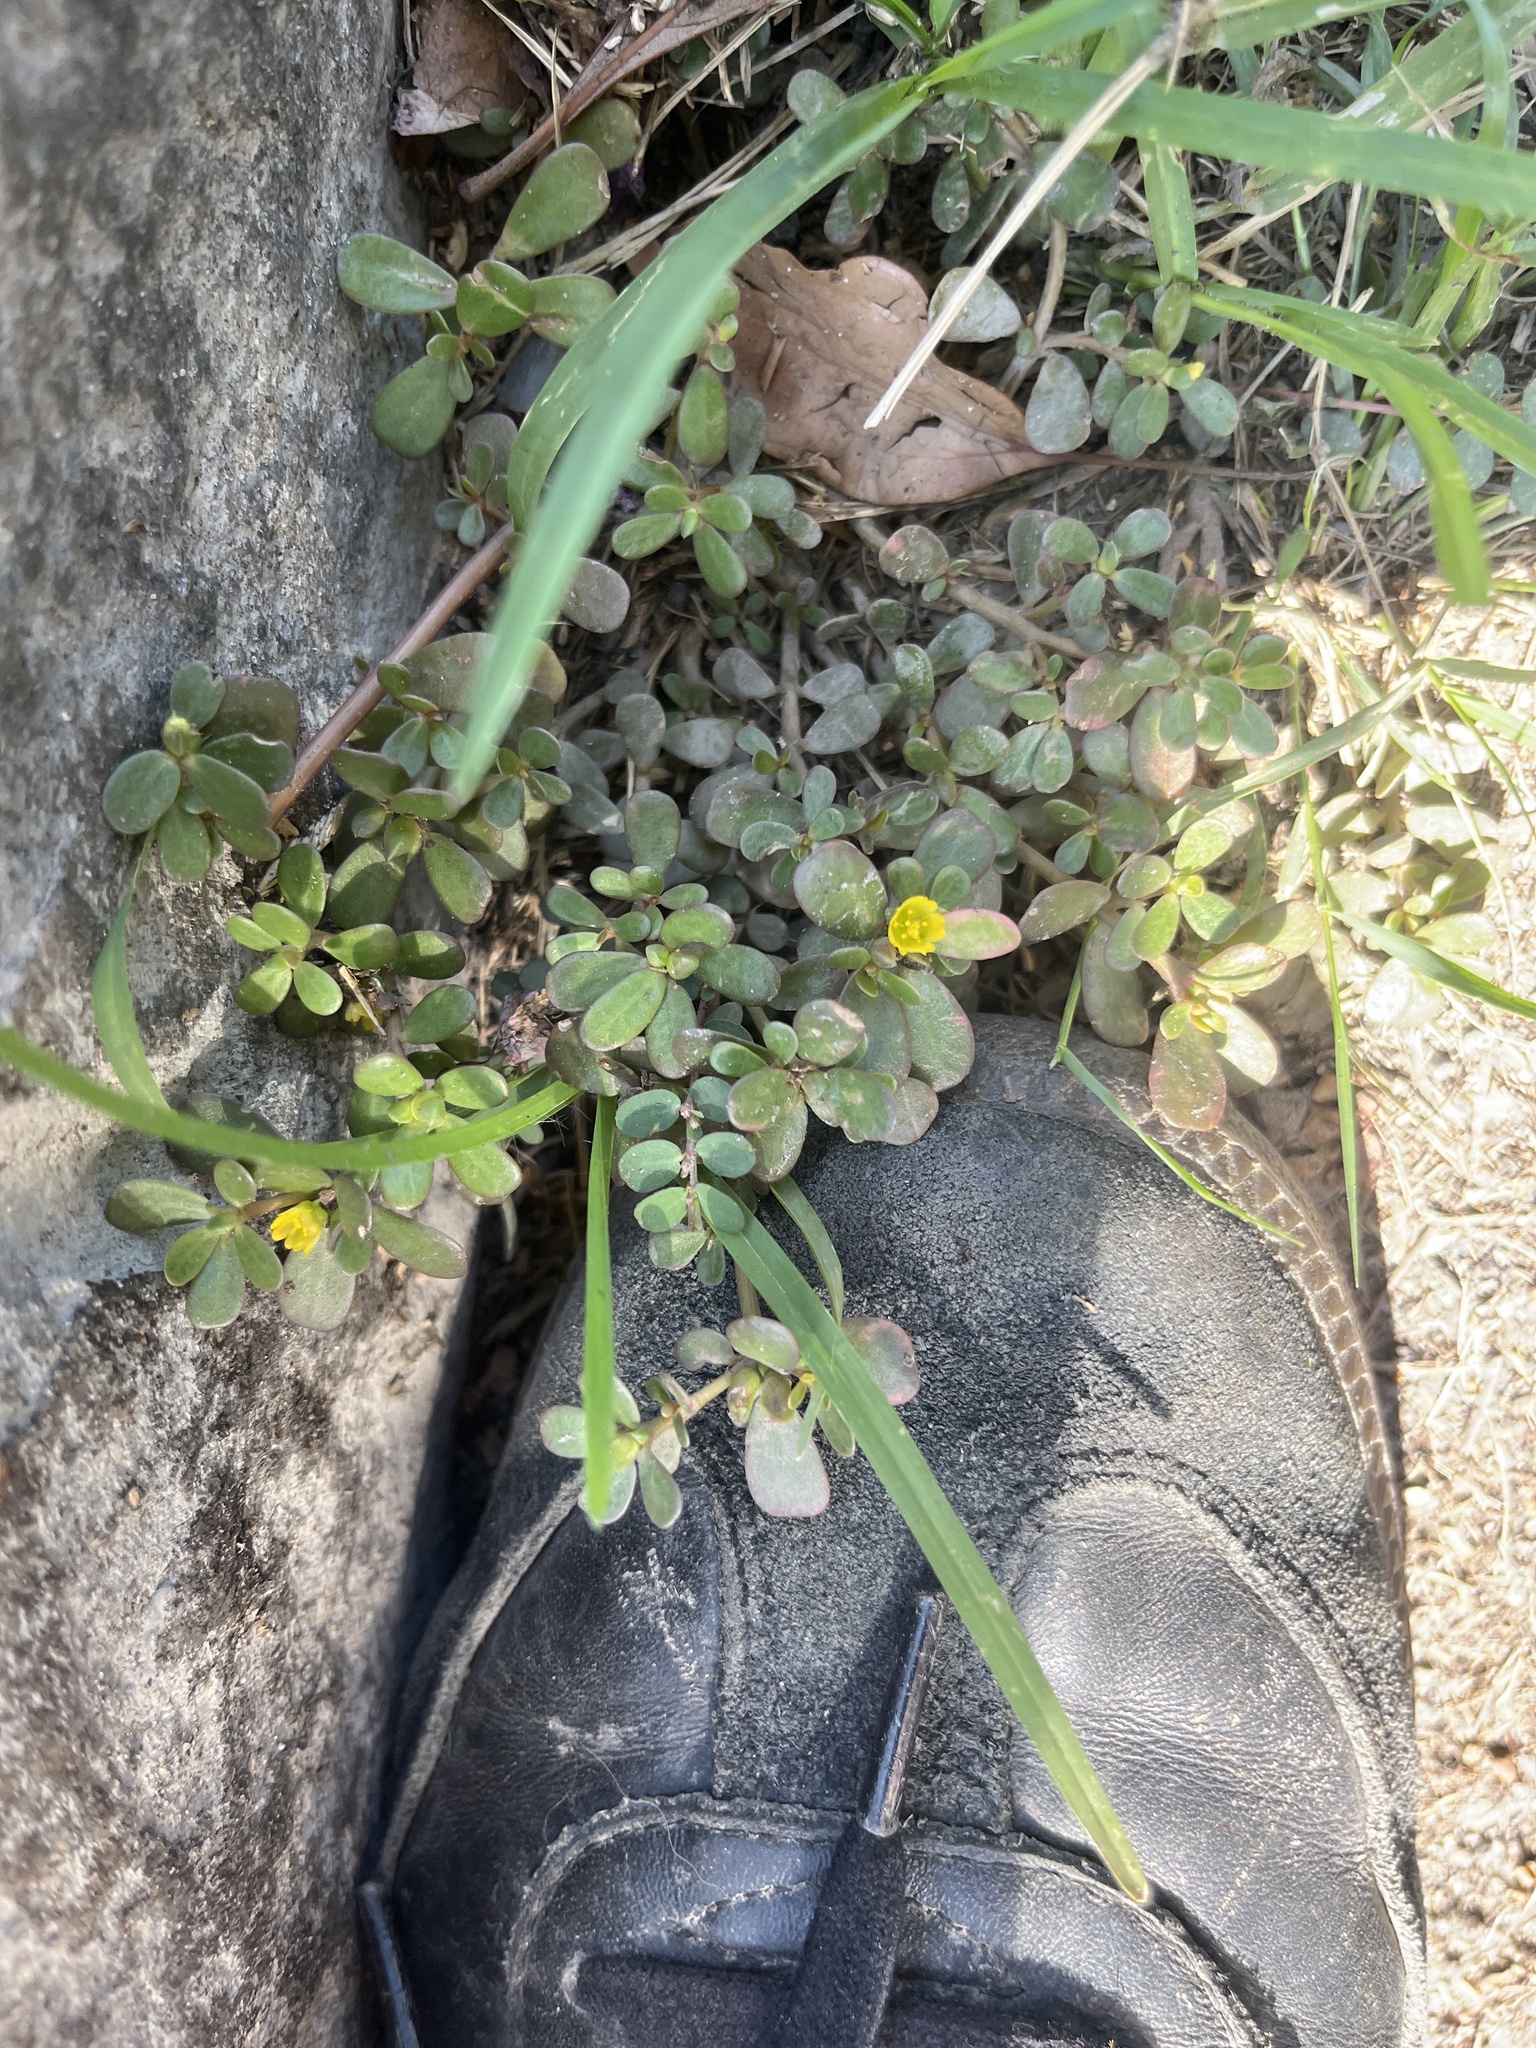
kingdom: Plantae
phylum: Tracheophyta
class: Magnoliopsida
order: Caryophyllales
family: Portulacaceae
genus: Portulaca
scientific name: Portulaca oleracea
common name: Common purslane
